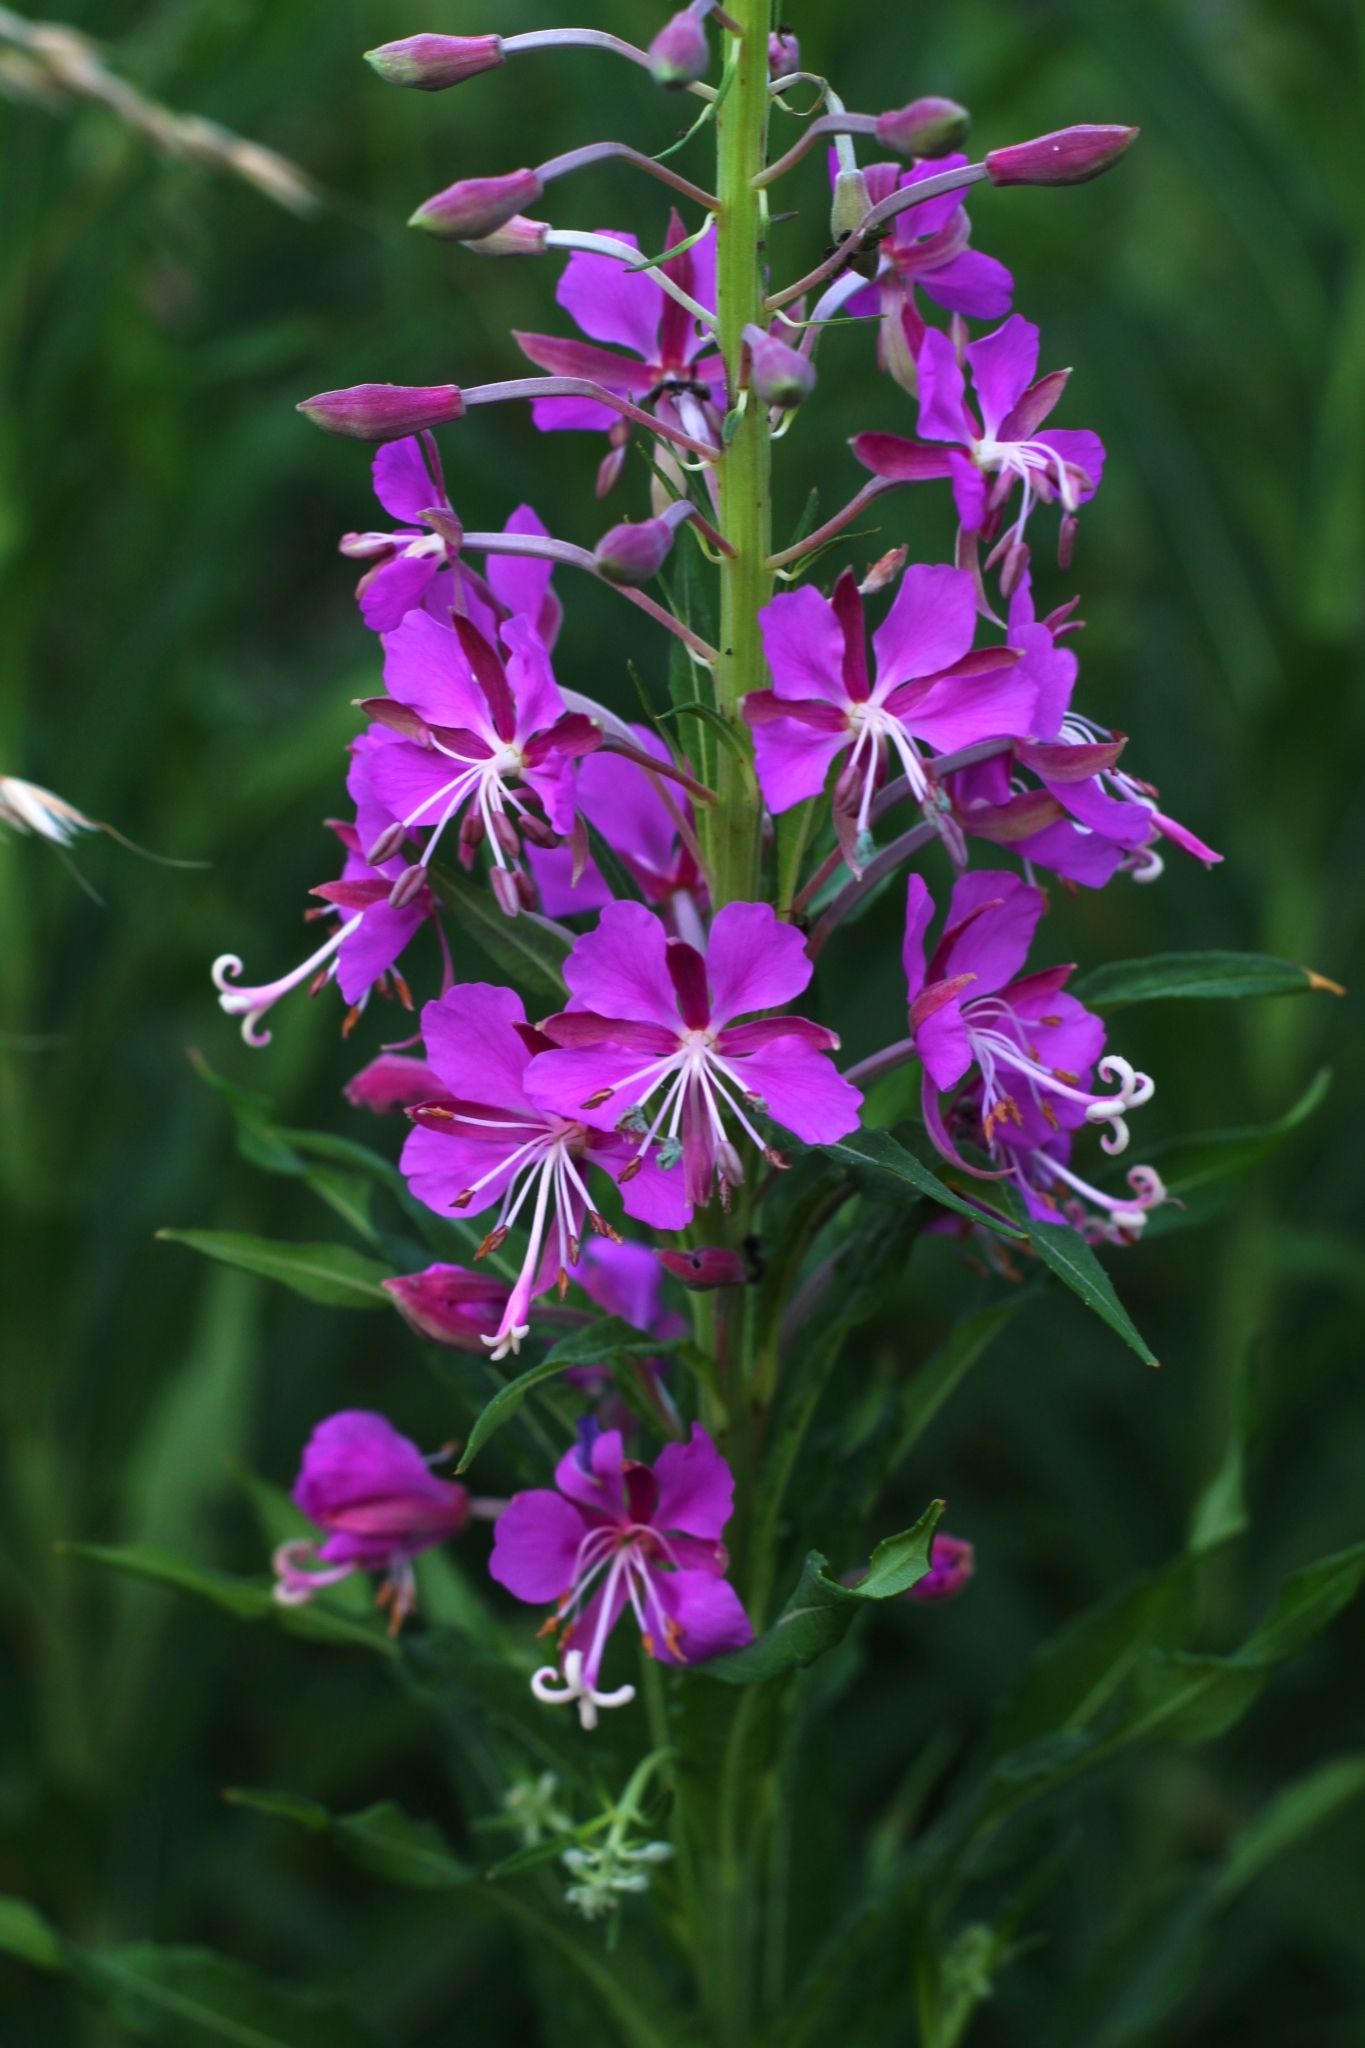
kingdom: Plantae
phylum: Tracheophyta
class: Magnoliopsida
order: Myrtales
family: Onagraceae
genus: Chamaenerion
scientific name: Chamaenerion angustifolium
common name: Fireweed
